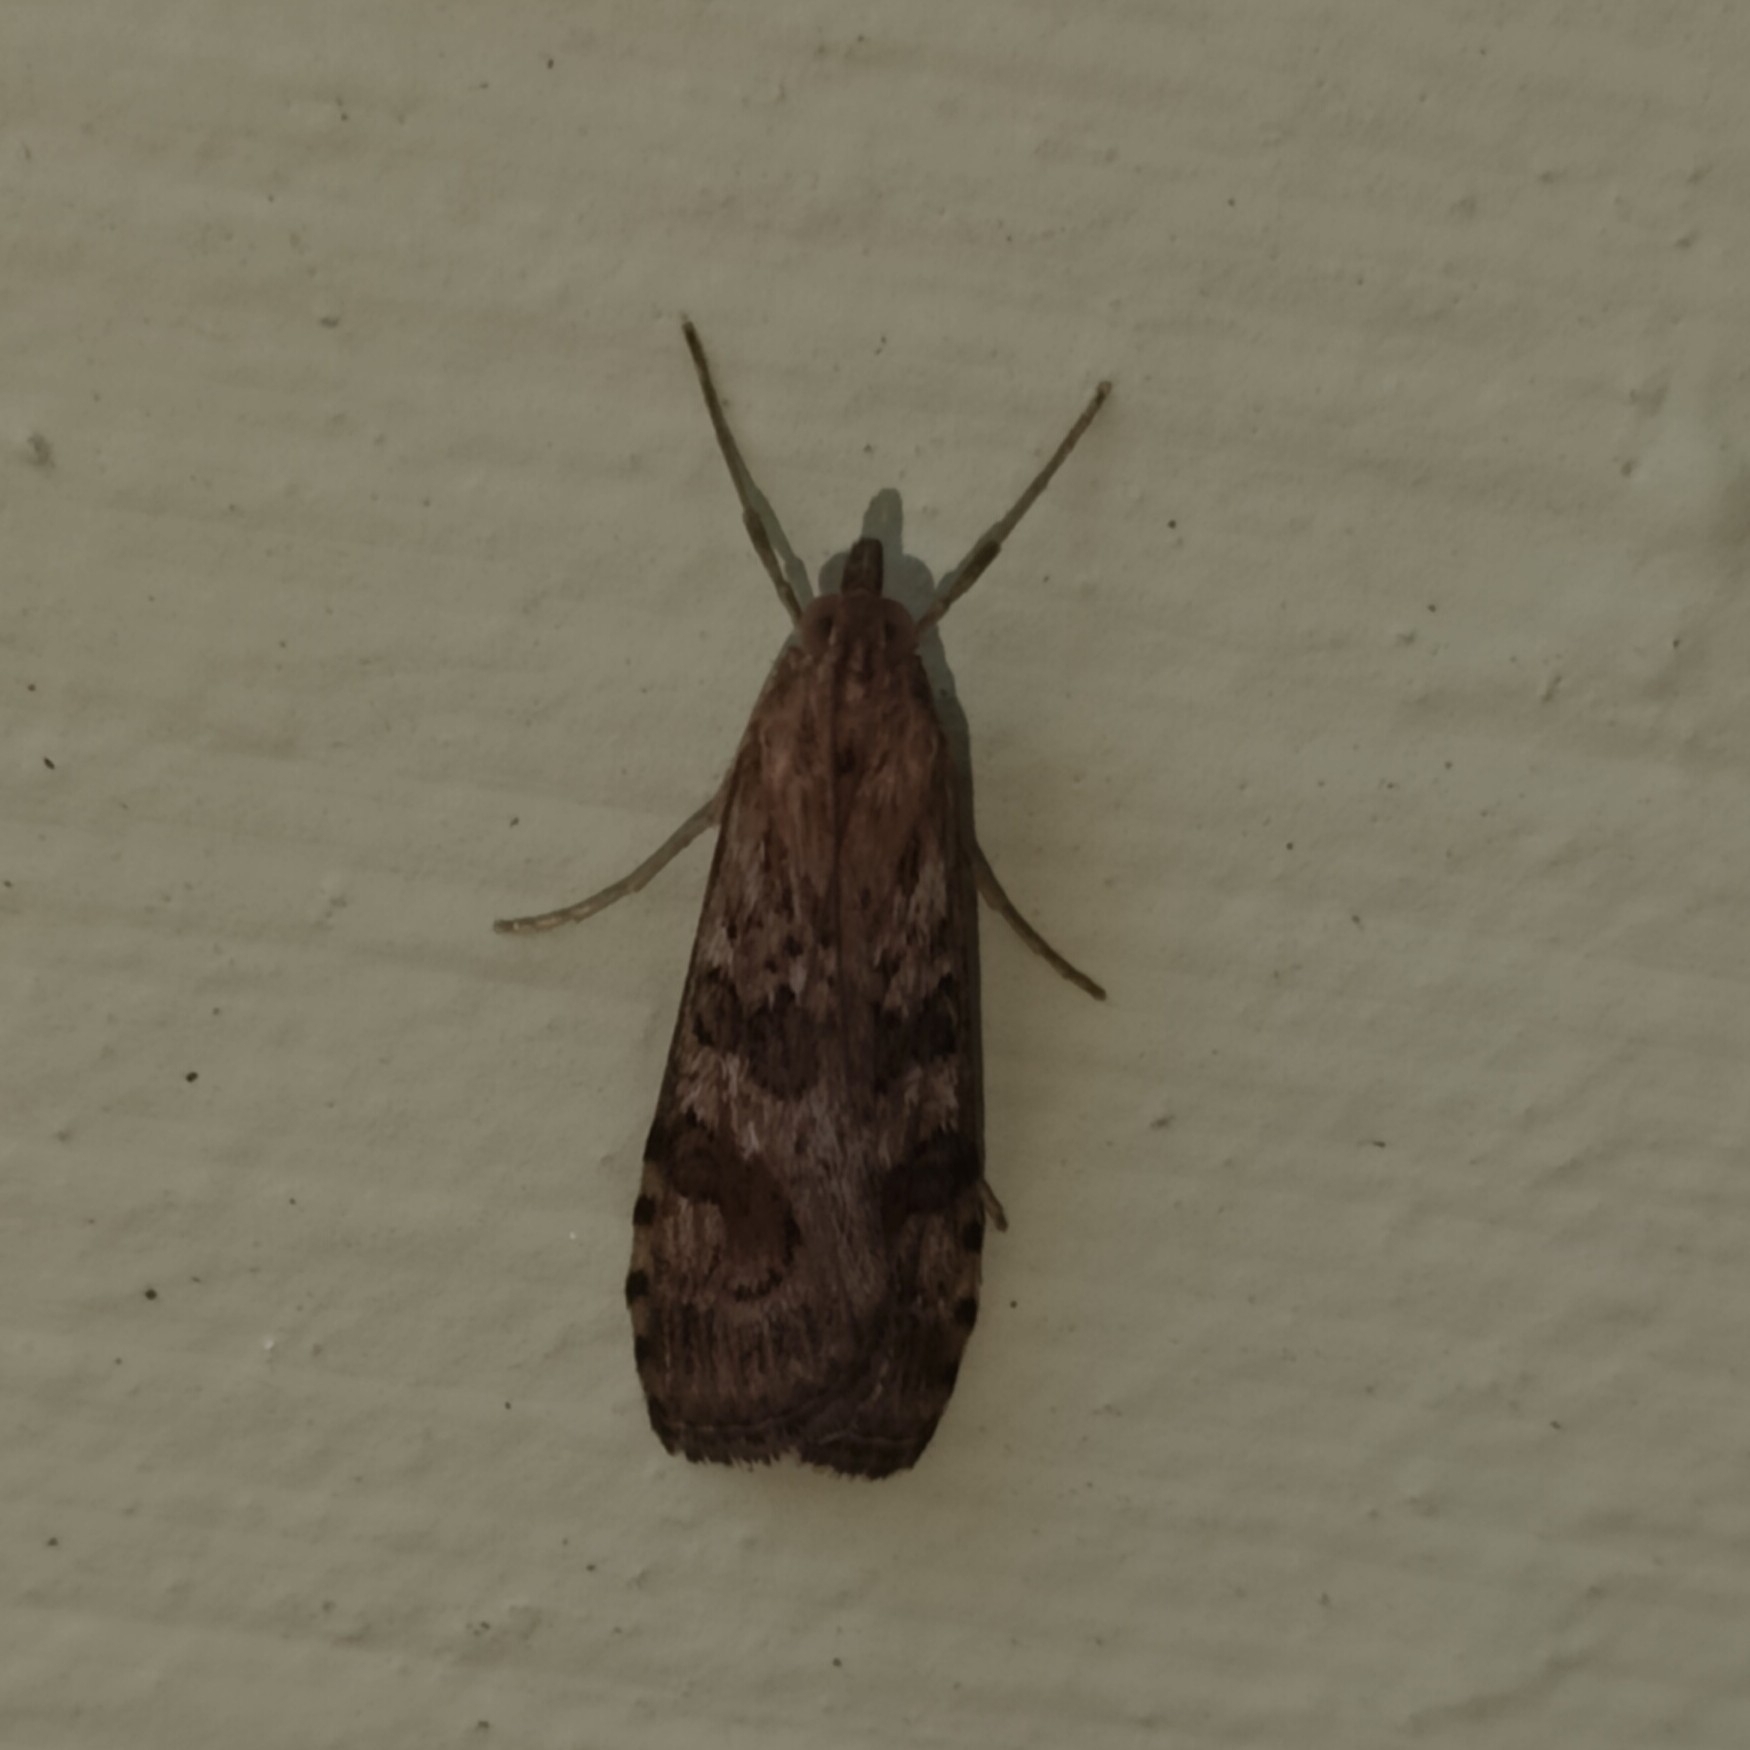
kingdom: Animalia
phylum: Arthropoda
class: Insecta
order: Lepidoptera
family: Crambidae
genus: Nomophila
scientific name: Nomophila noctuella
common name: Rush veneer
